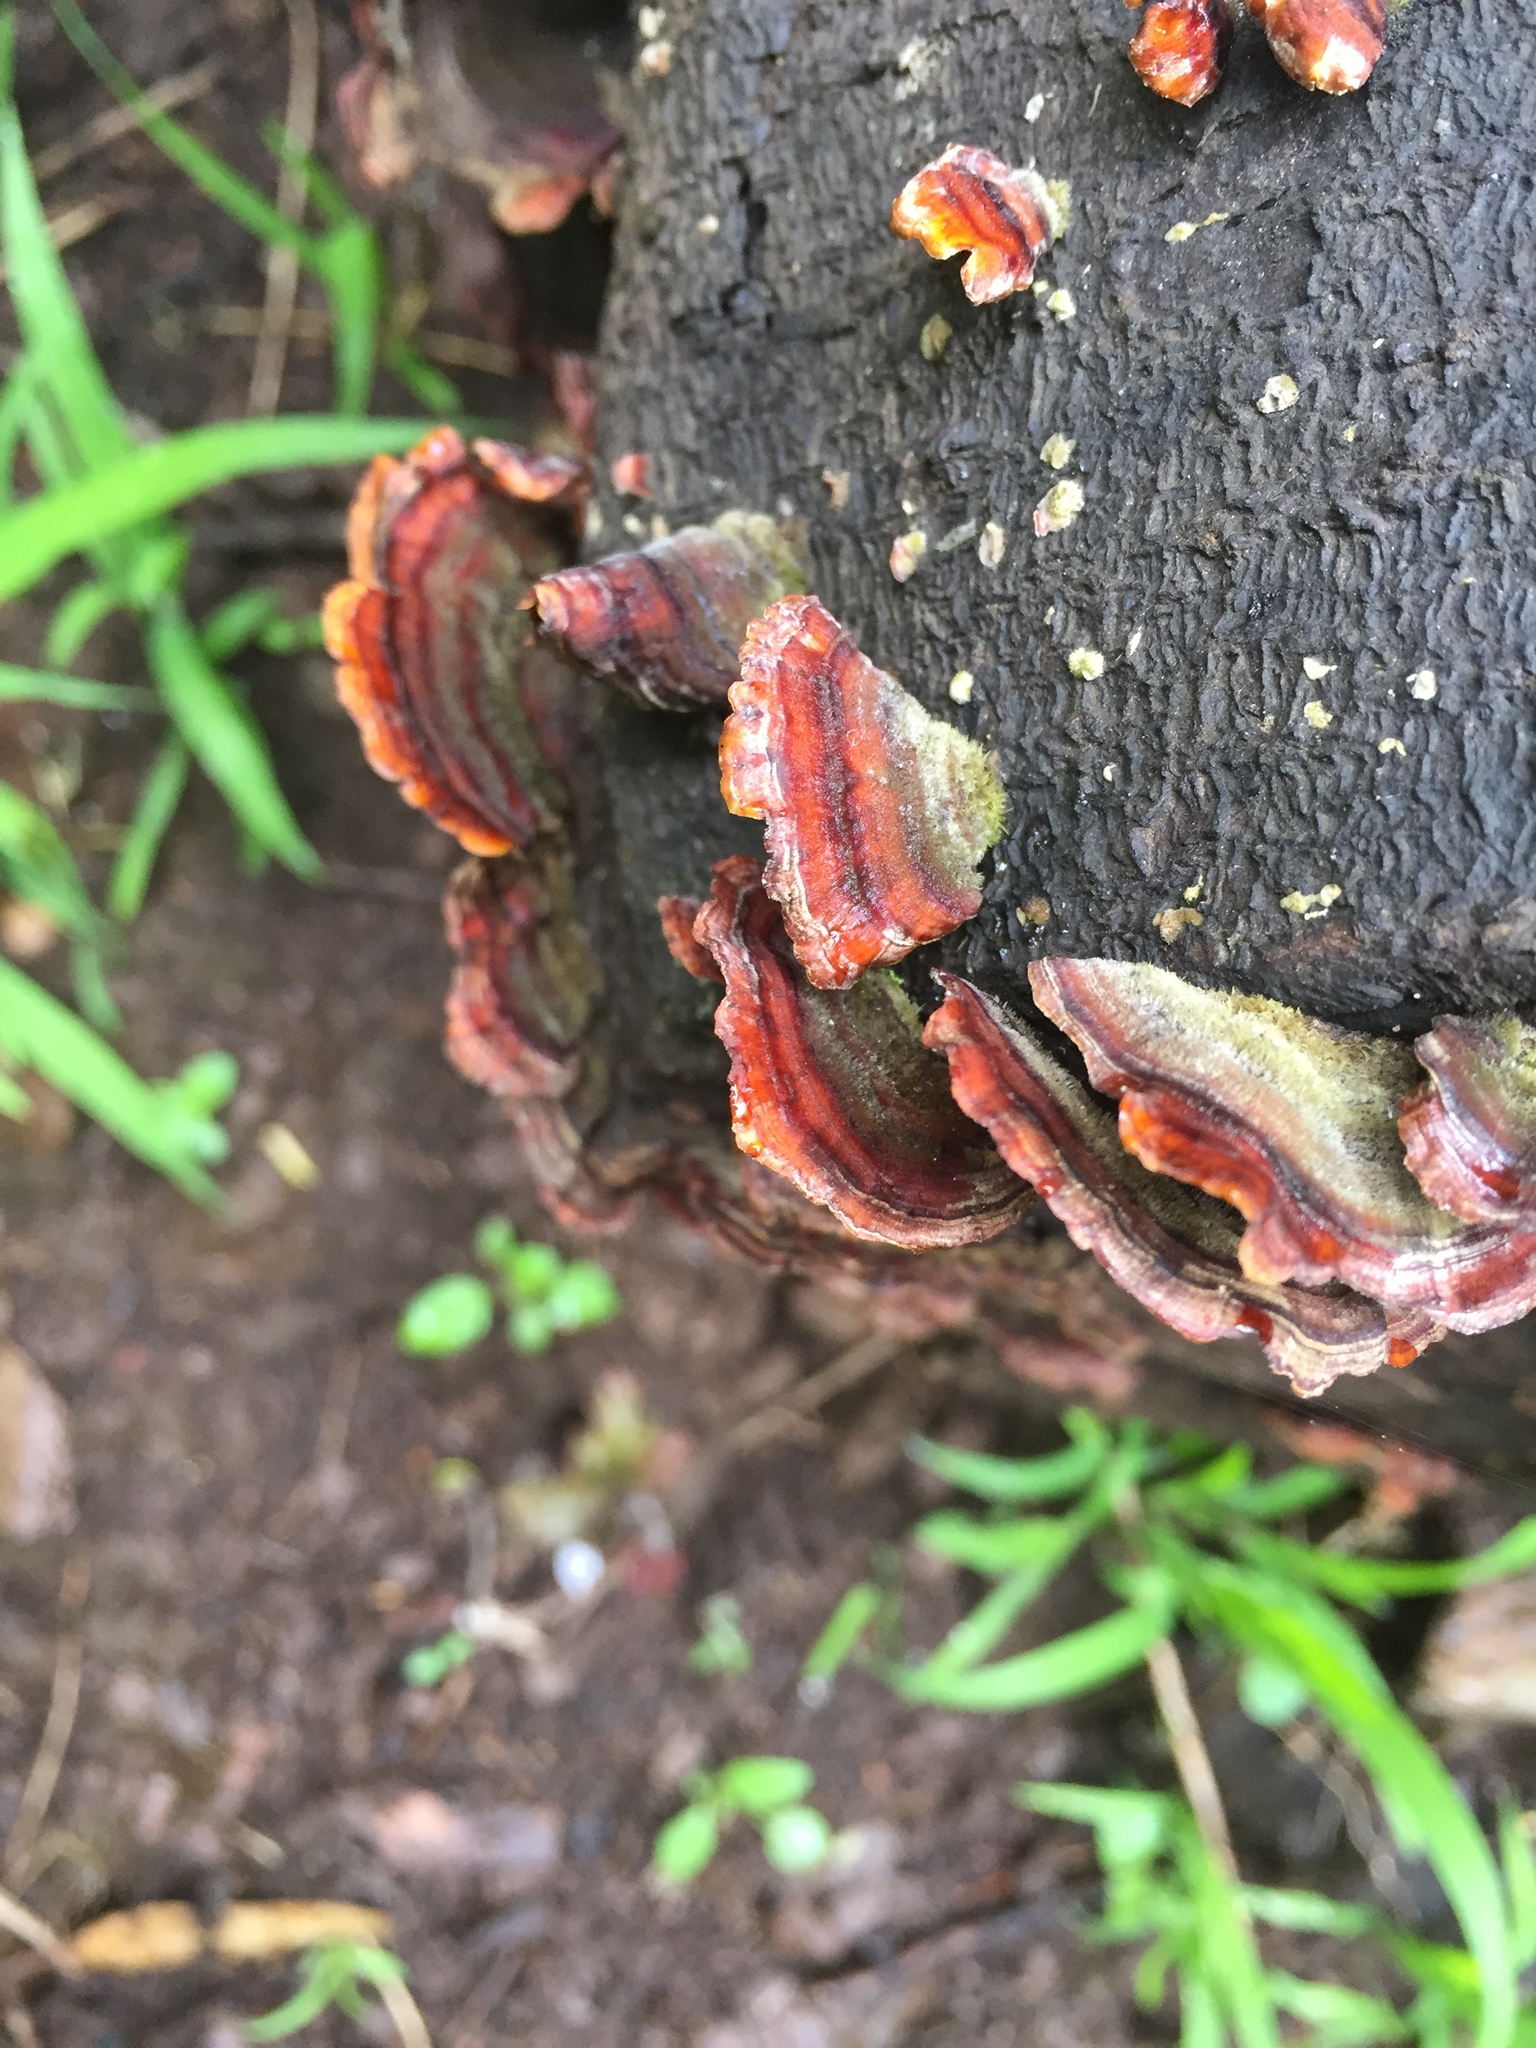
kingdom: Fungi
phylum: Basidiomycota
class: Agaricomycetes
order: Russulales
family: Stereaceae
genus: Stereum
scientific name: Stereum hirsutum
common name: Hairy curtain crust
